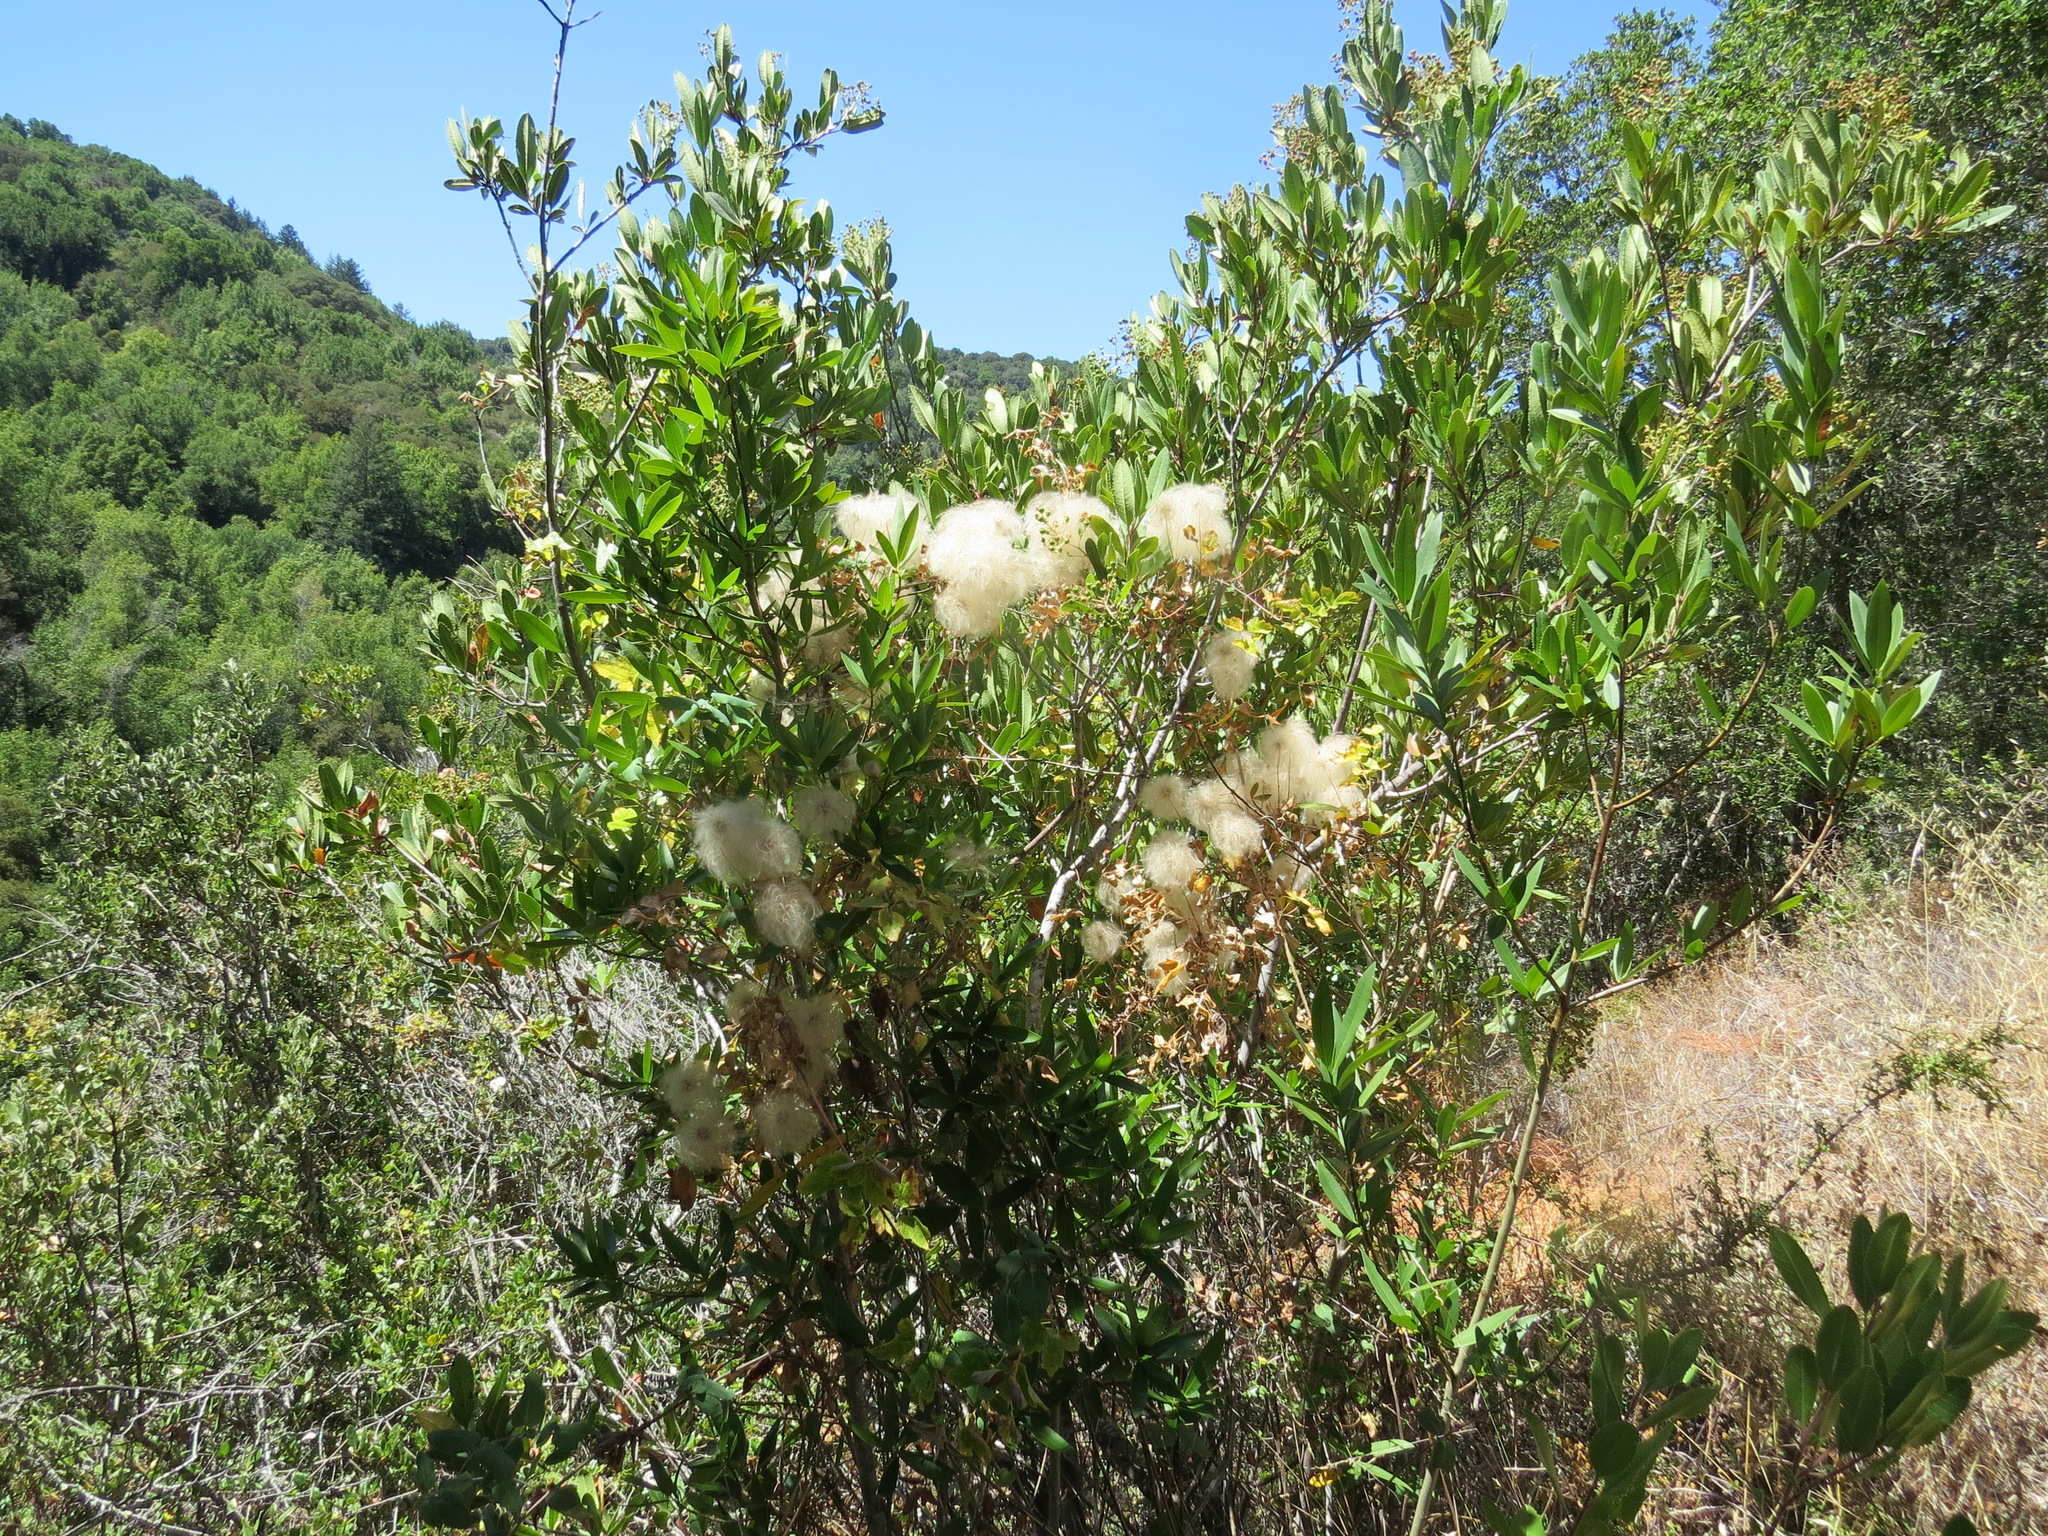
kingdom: Plantae
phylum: Tracheophyta
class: Magnoliopsida
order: Ranunculales
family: Ranunculaceae
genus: Clematis
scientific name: Clematis lasiantha
